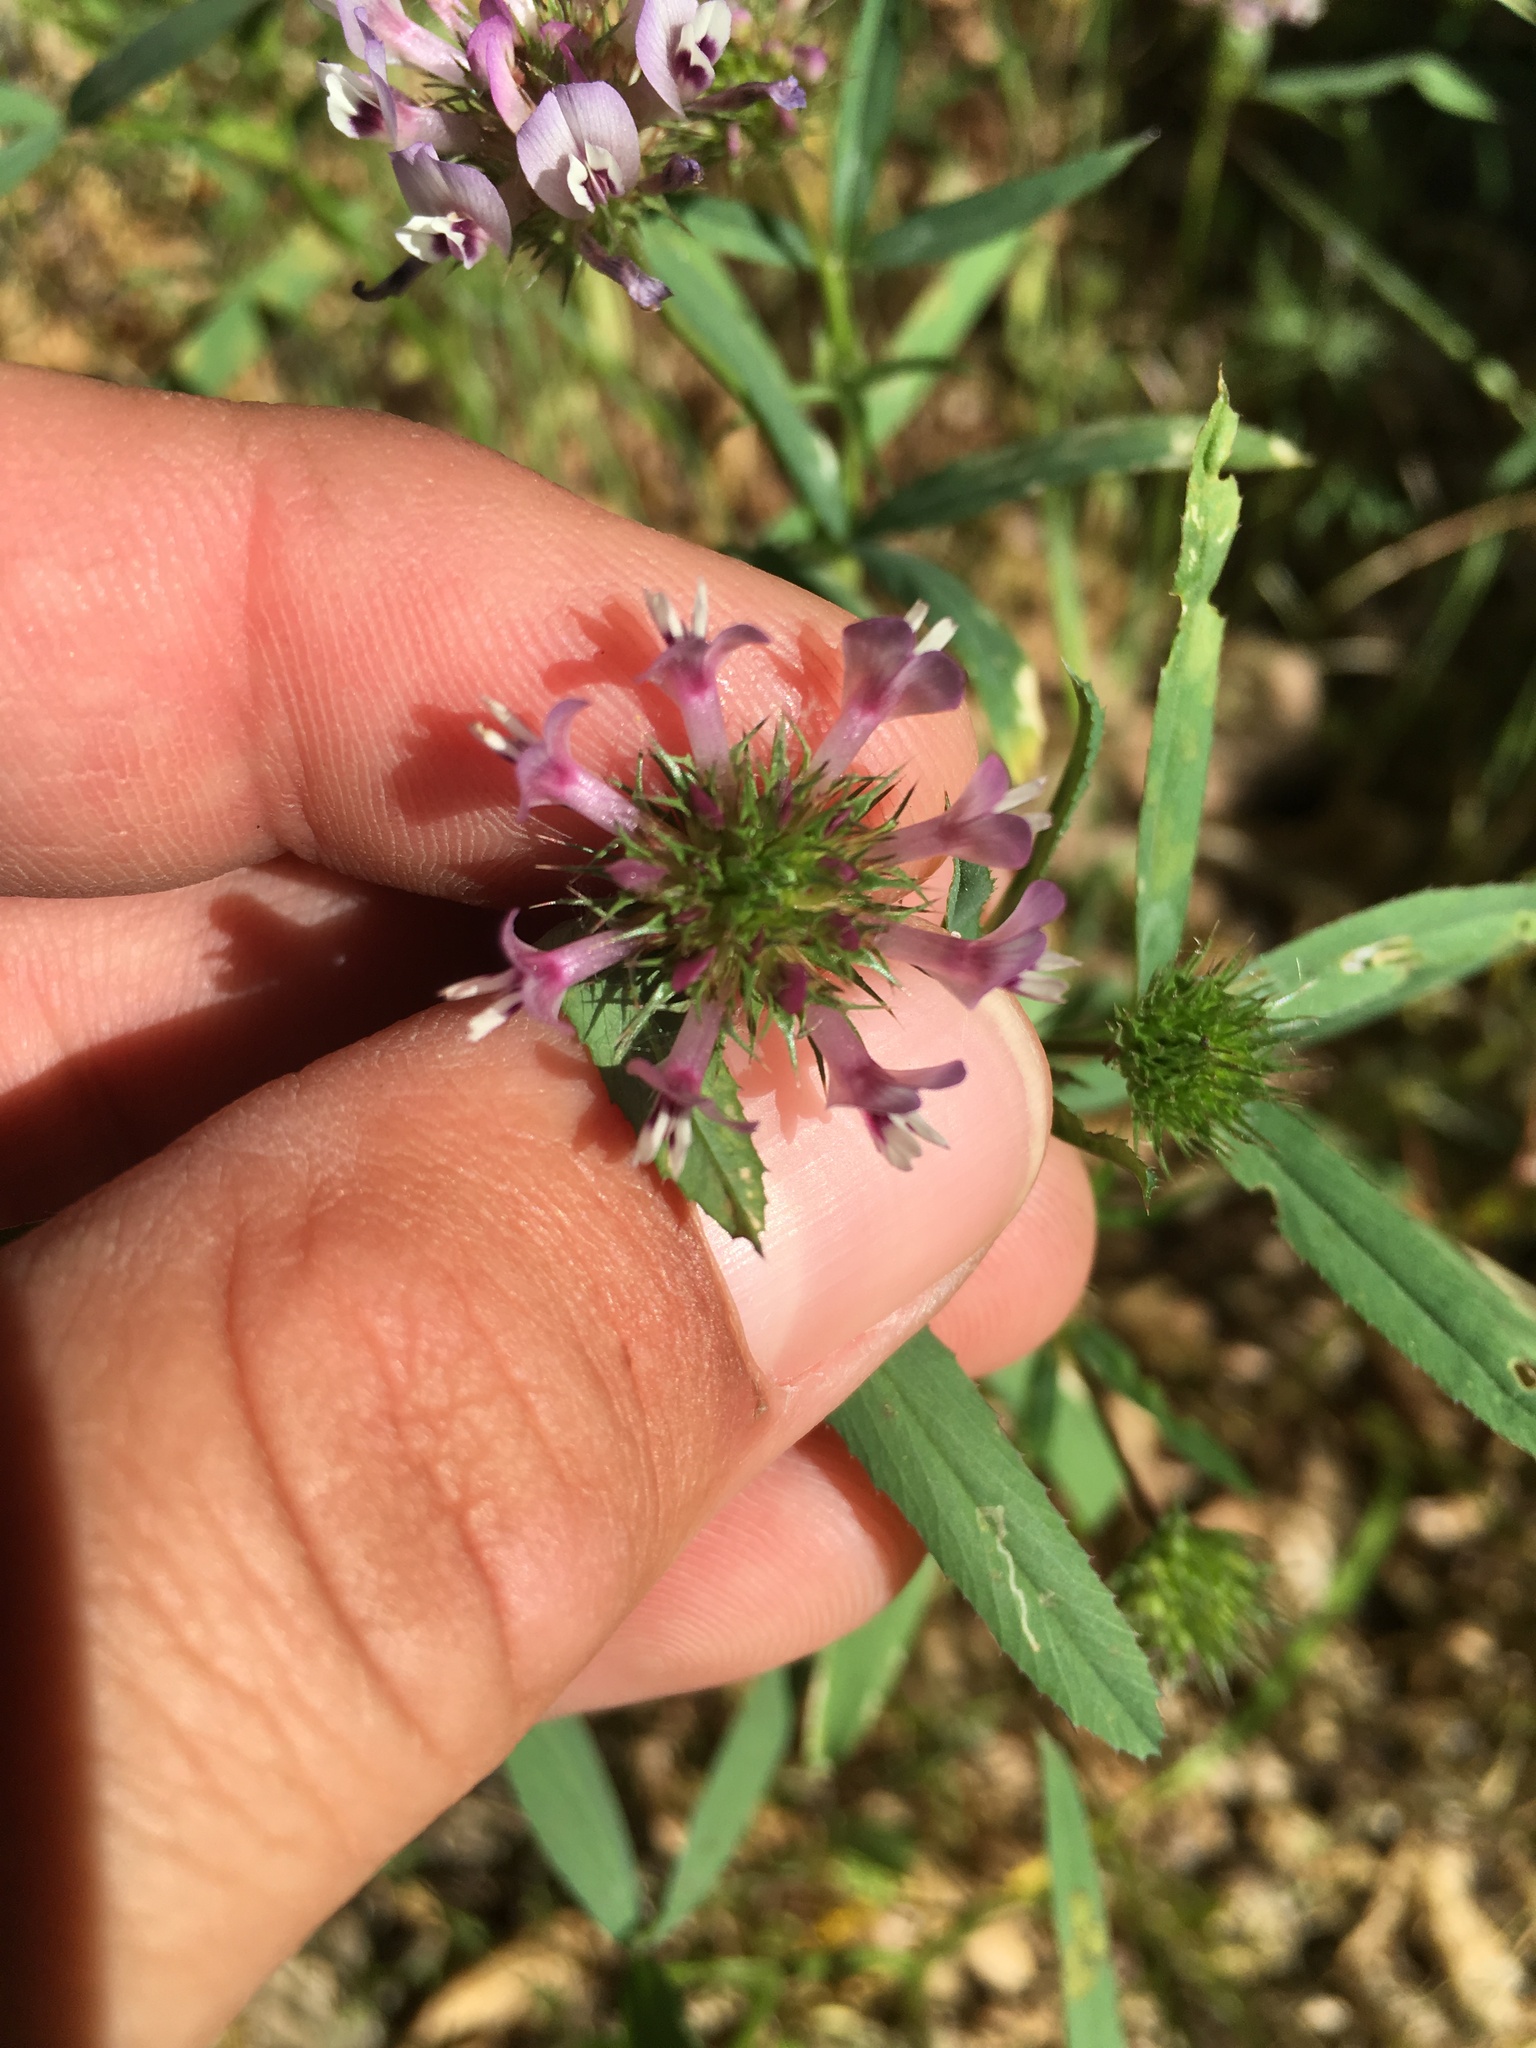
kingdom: Plantae
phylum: Tracheophyta
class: Magnoliopsida
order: Fabales
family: Fabaceae
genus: Trifolium
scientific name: Trifolium willdenovii
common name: Tomcat clover
